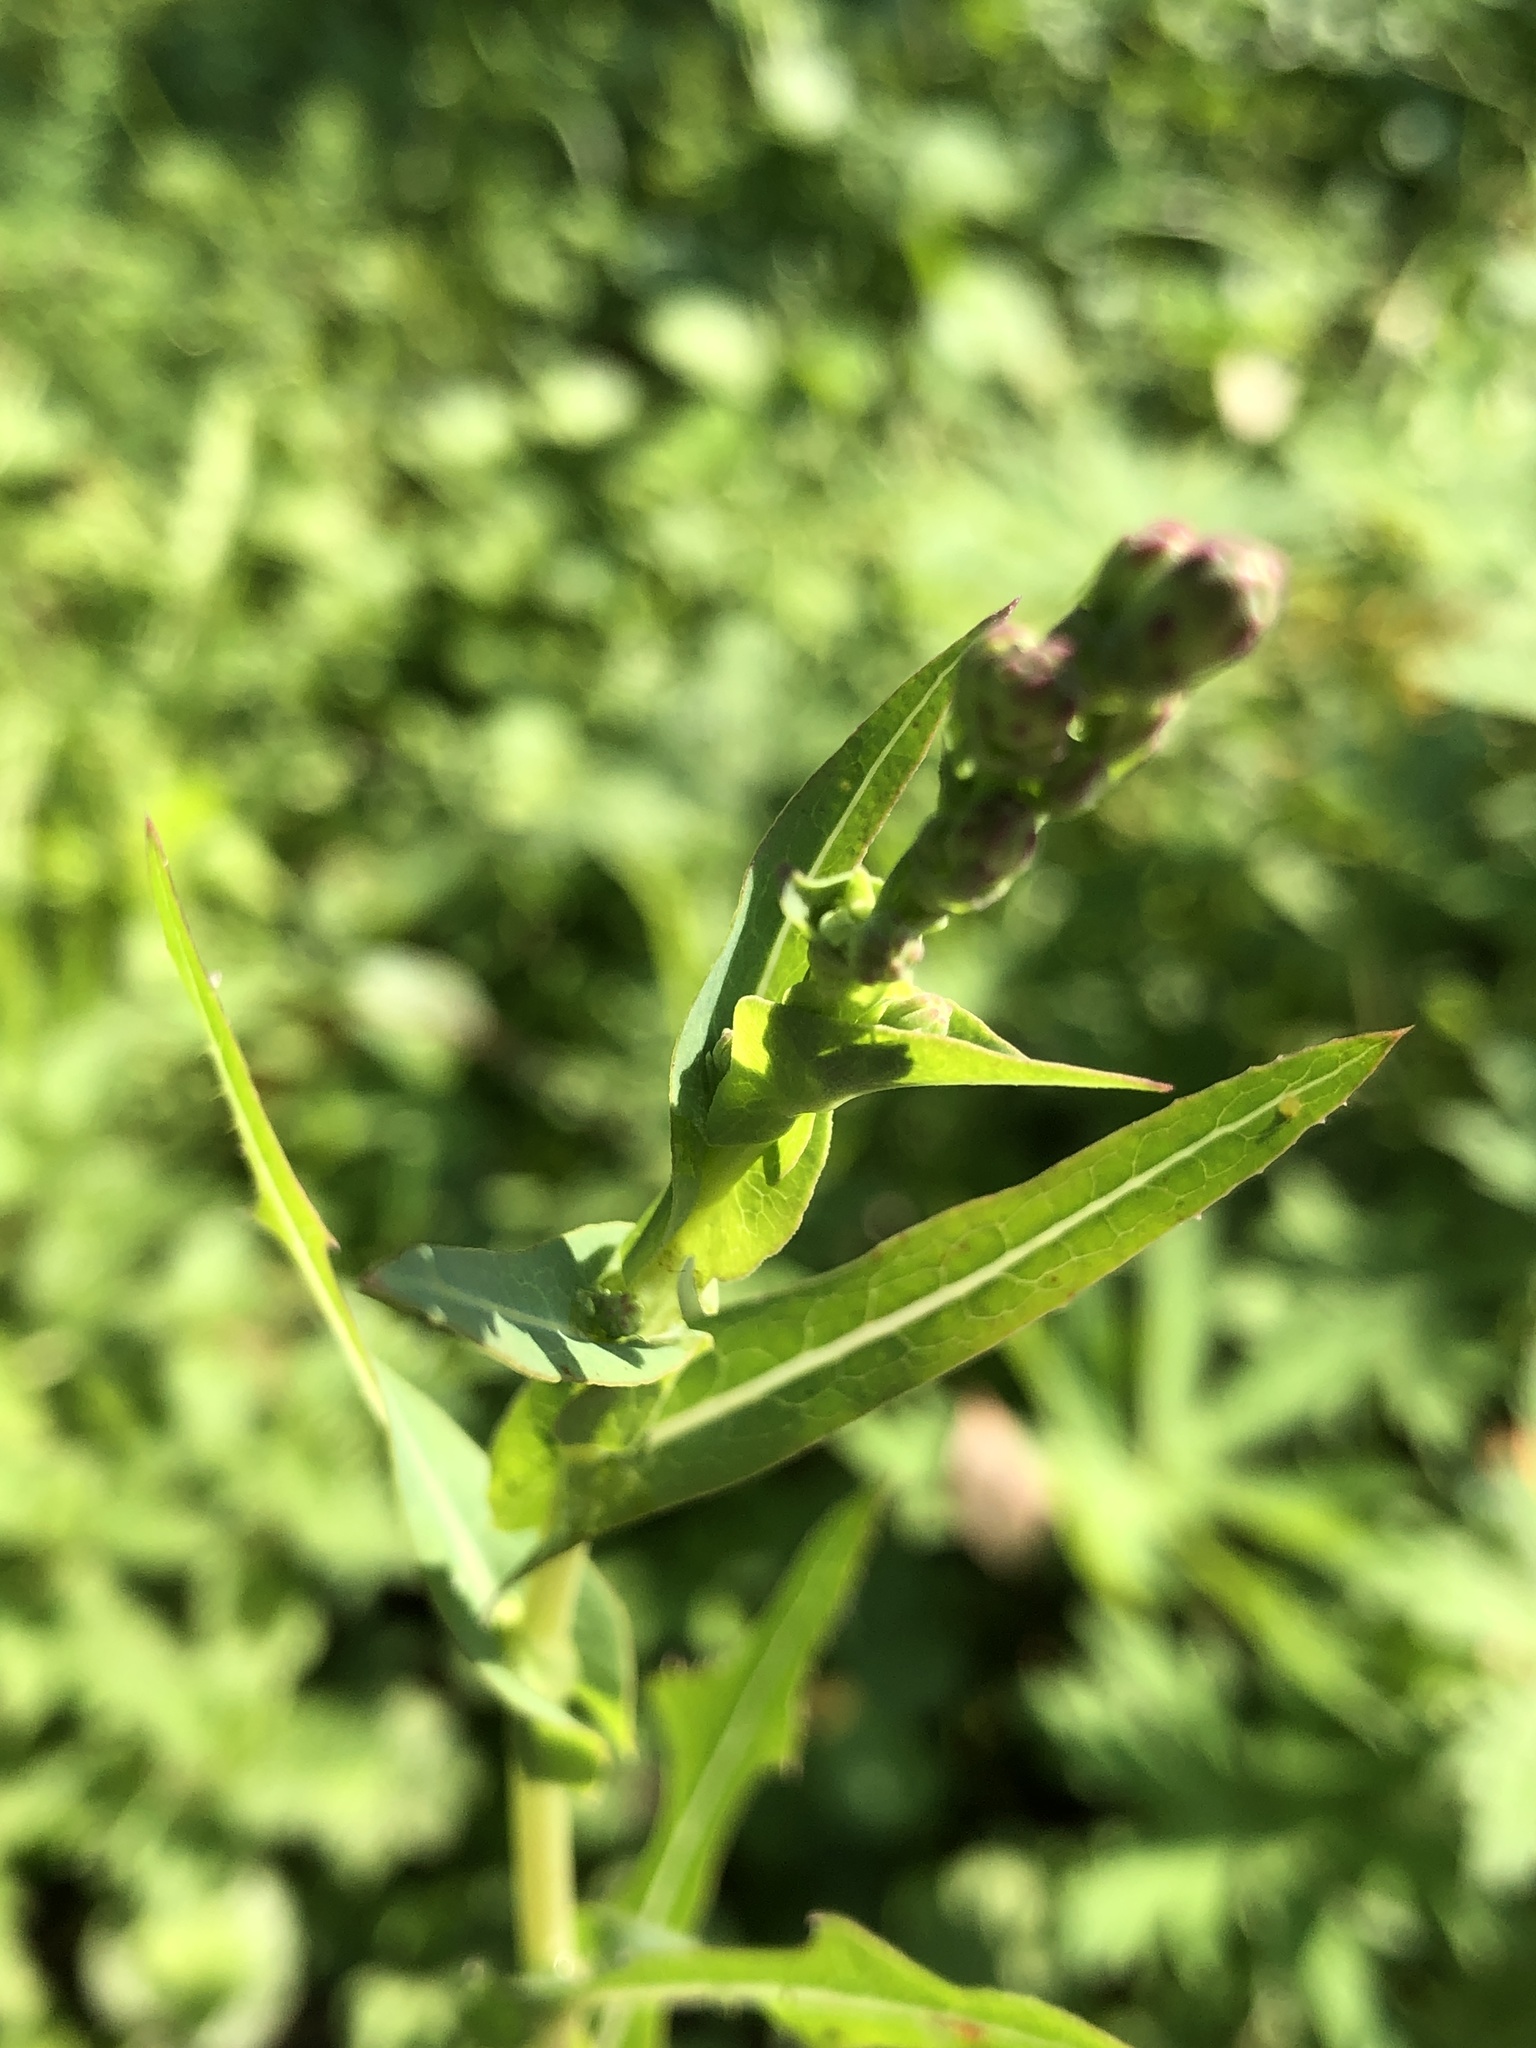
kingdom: Plantae
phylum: Tracheophyta
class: Magnoliopsida
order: Asterales
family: Asteraceae
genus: Lactuca
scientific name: Lactuca serriola
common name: Prickly lettuce
